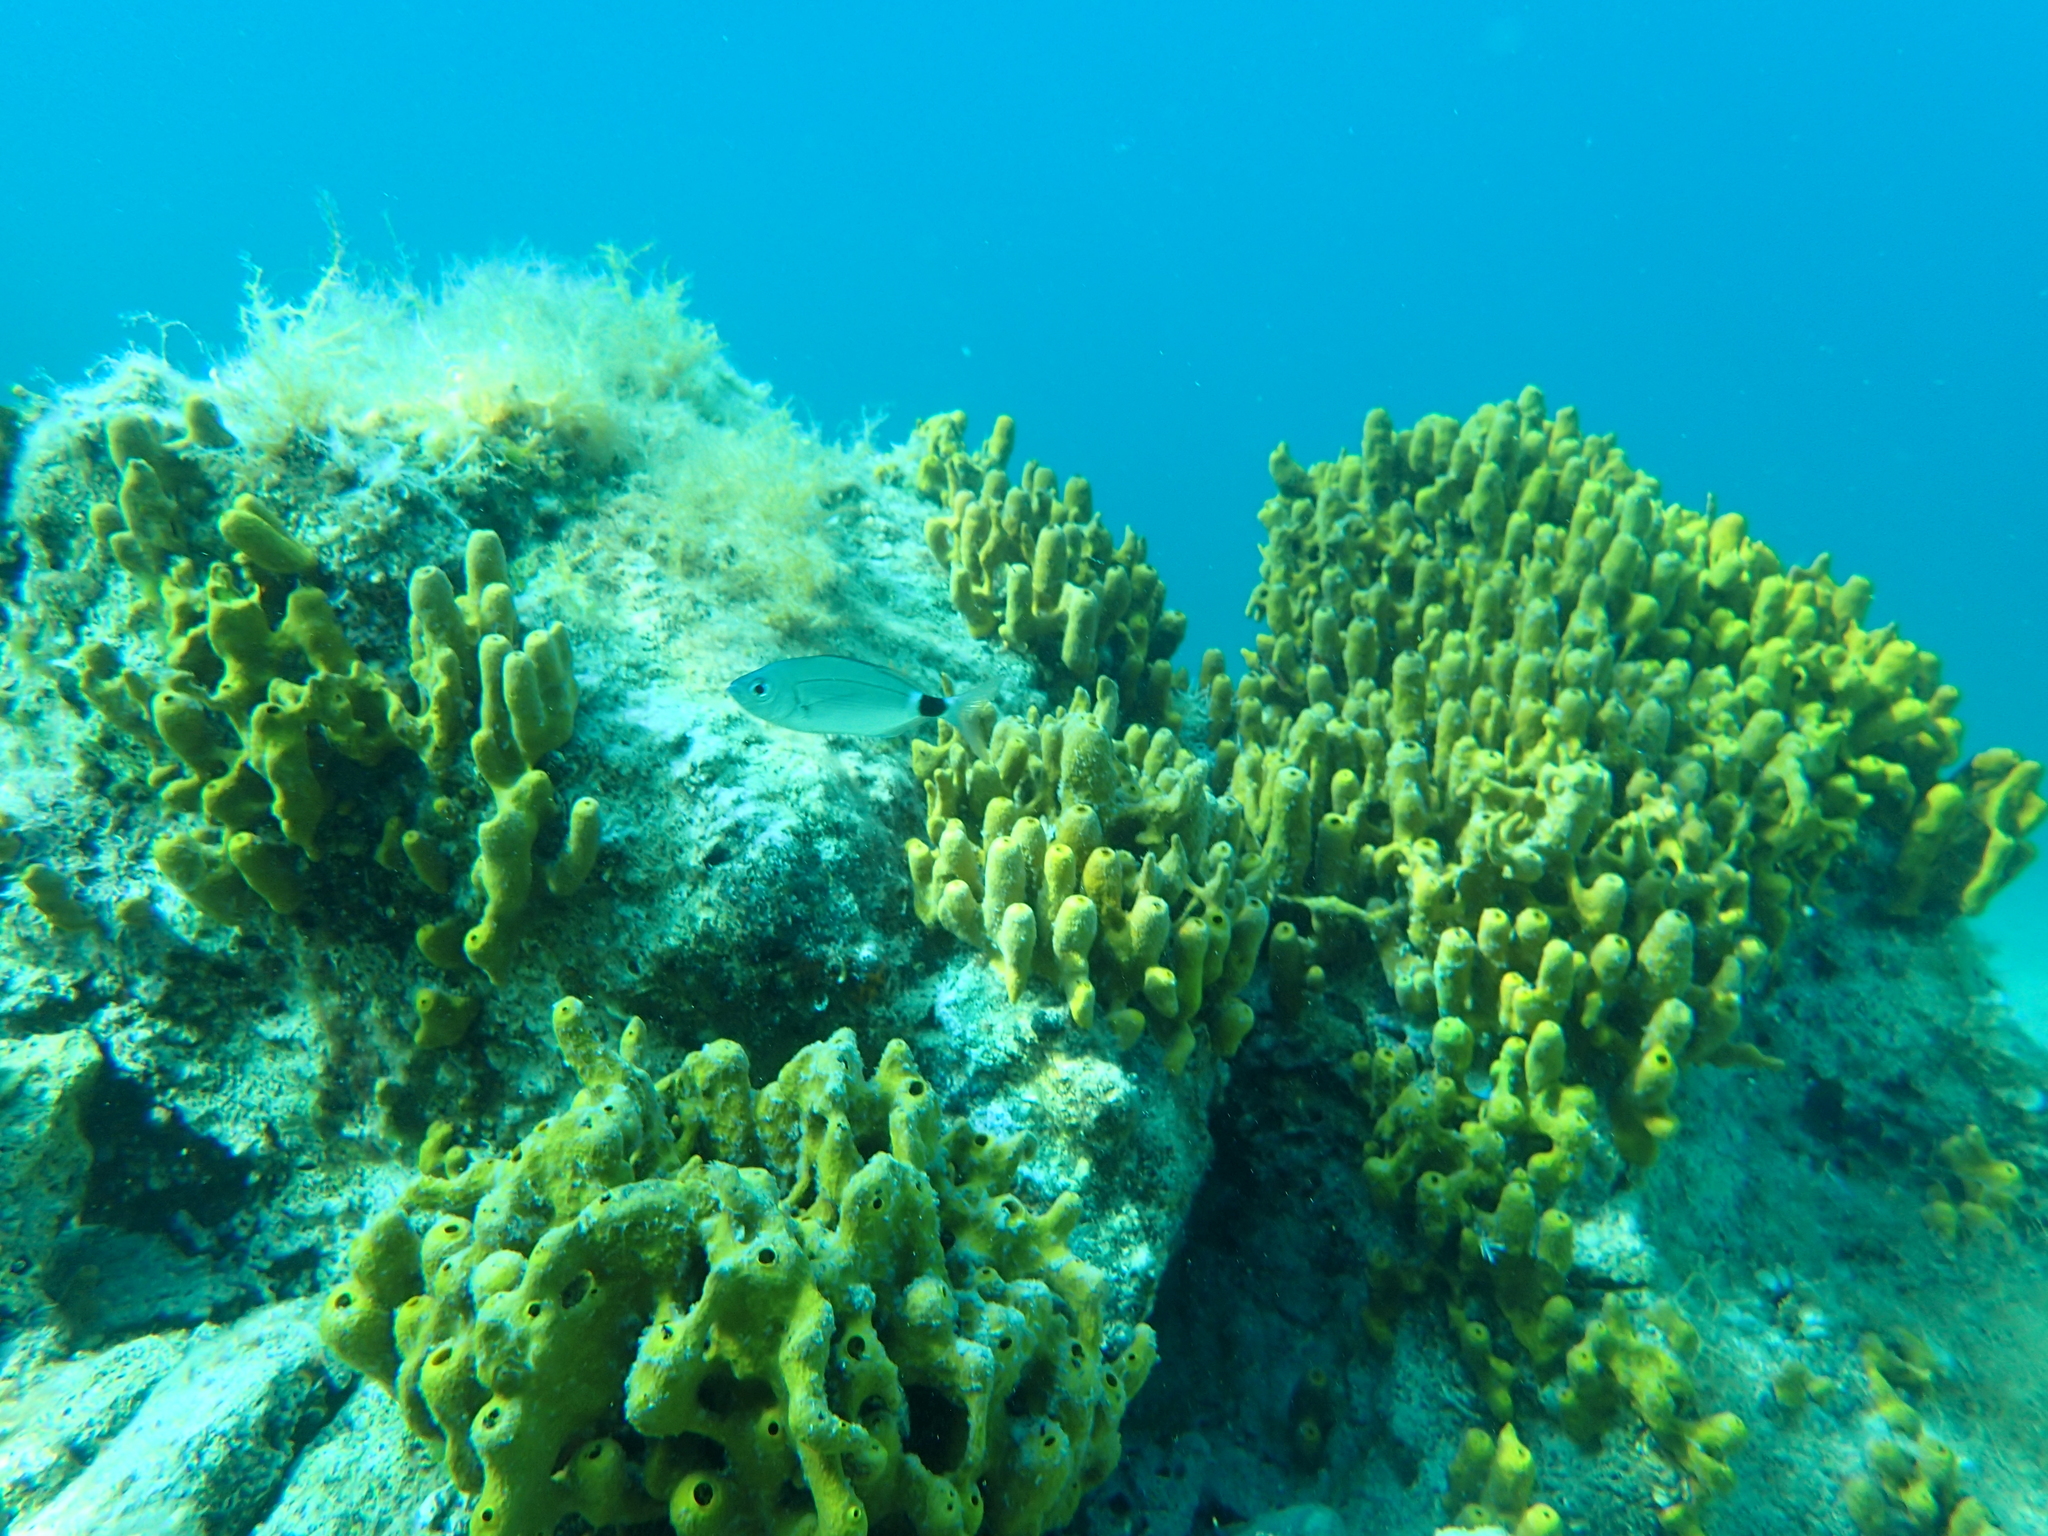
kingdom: Animalia
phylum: Porifera
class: Demospongiae
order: Verongiida
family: Aplysinidae
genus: Aplysina
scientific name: Aplysina aerophoba
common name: Aureate sponge
